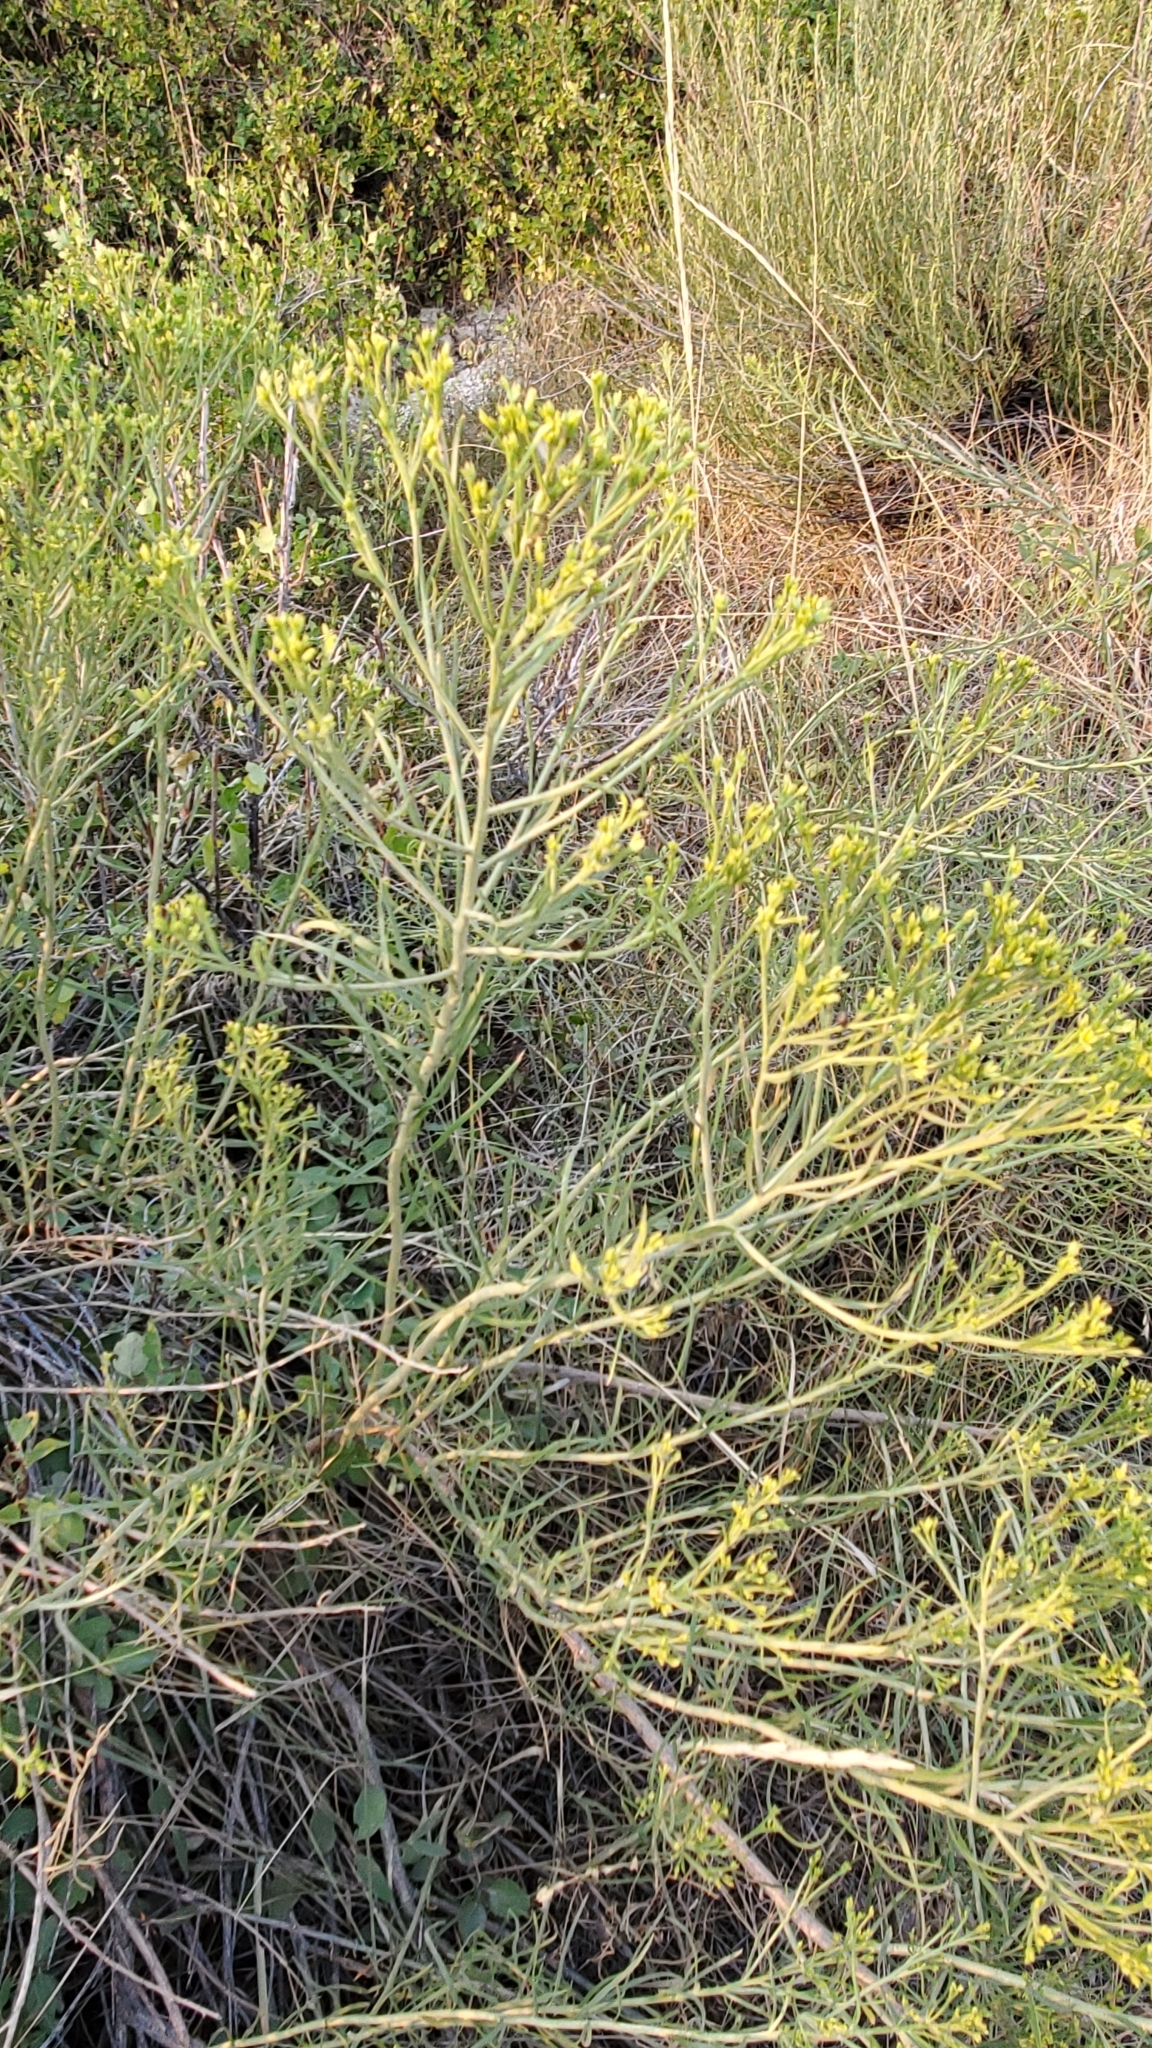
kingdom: Plantae
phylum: Tracheophyta
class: Magnoliopsida
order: Asterales
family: Asteraceae
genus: Ericameria
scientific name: Ericameria nauseosa
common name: Rubber rabbitbrush
